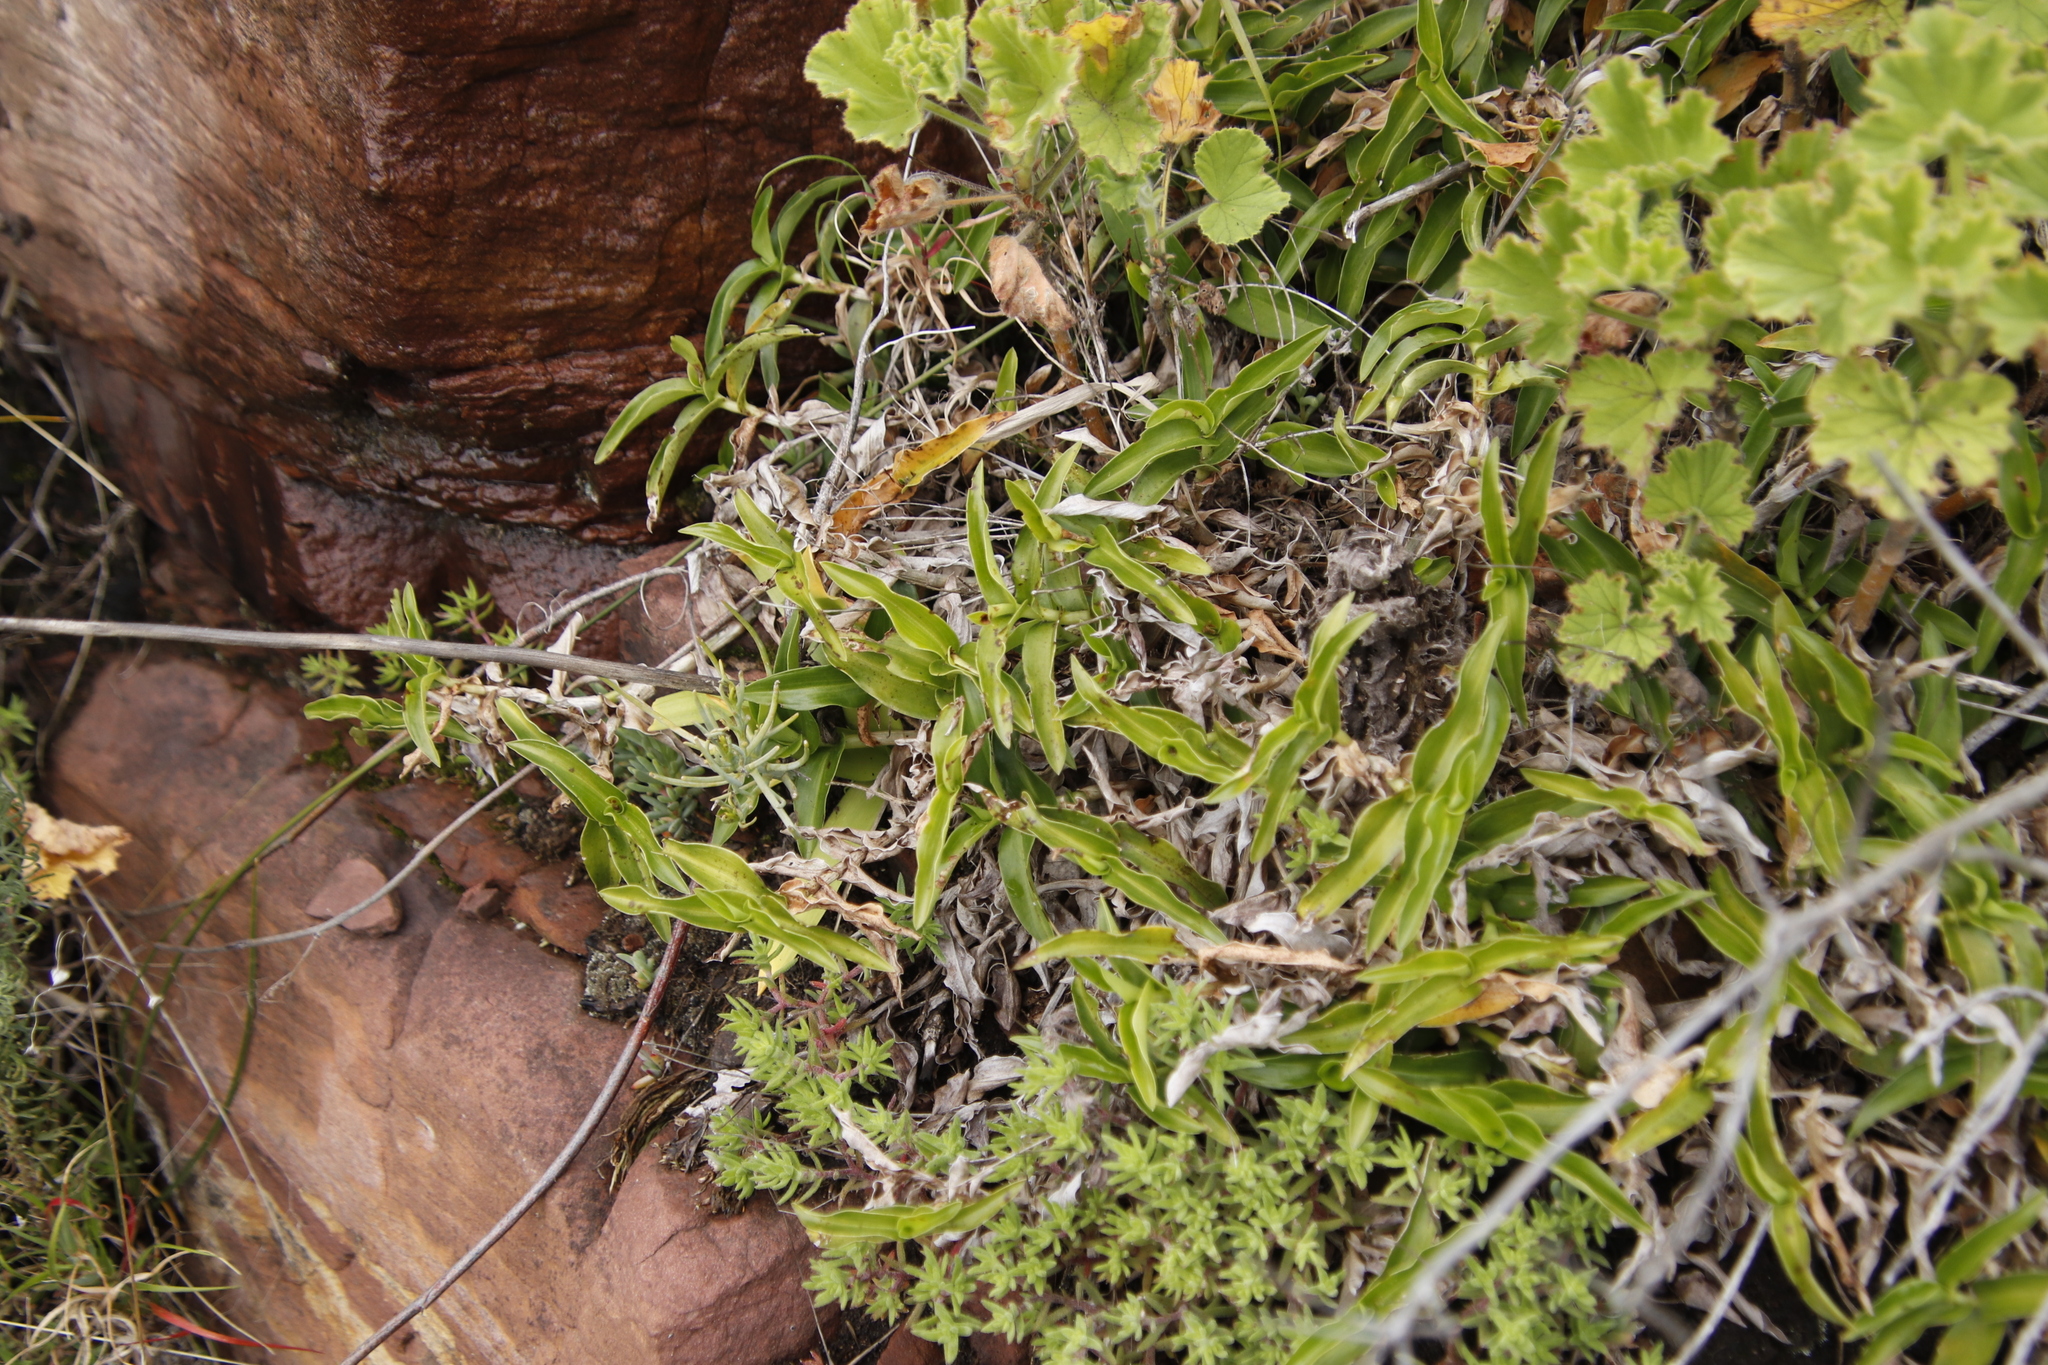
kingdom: Plantae
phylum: Tracheophyta
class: Liliopsida
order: Commelinales
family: Commelinaceae
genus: Commelina
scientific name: Commelina africana
